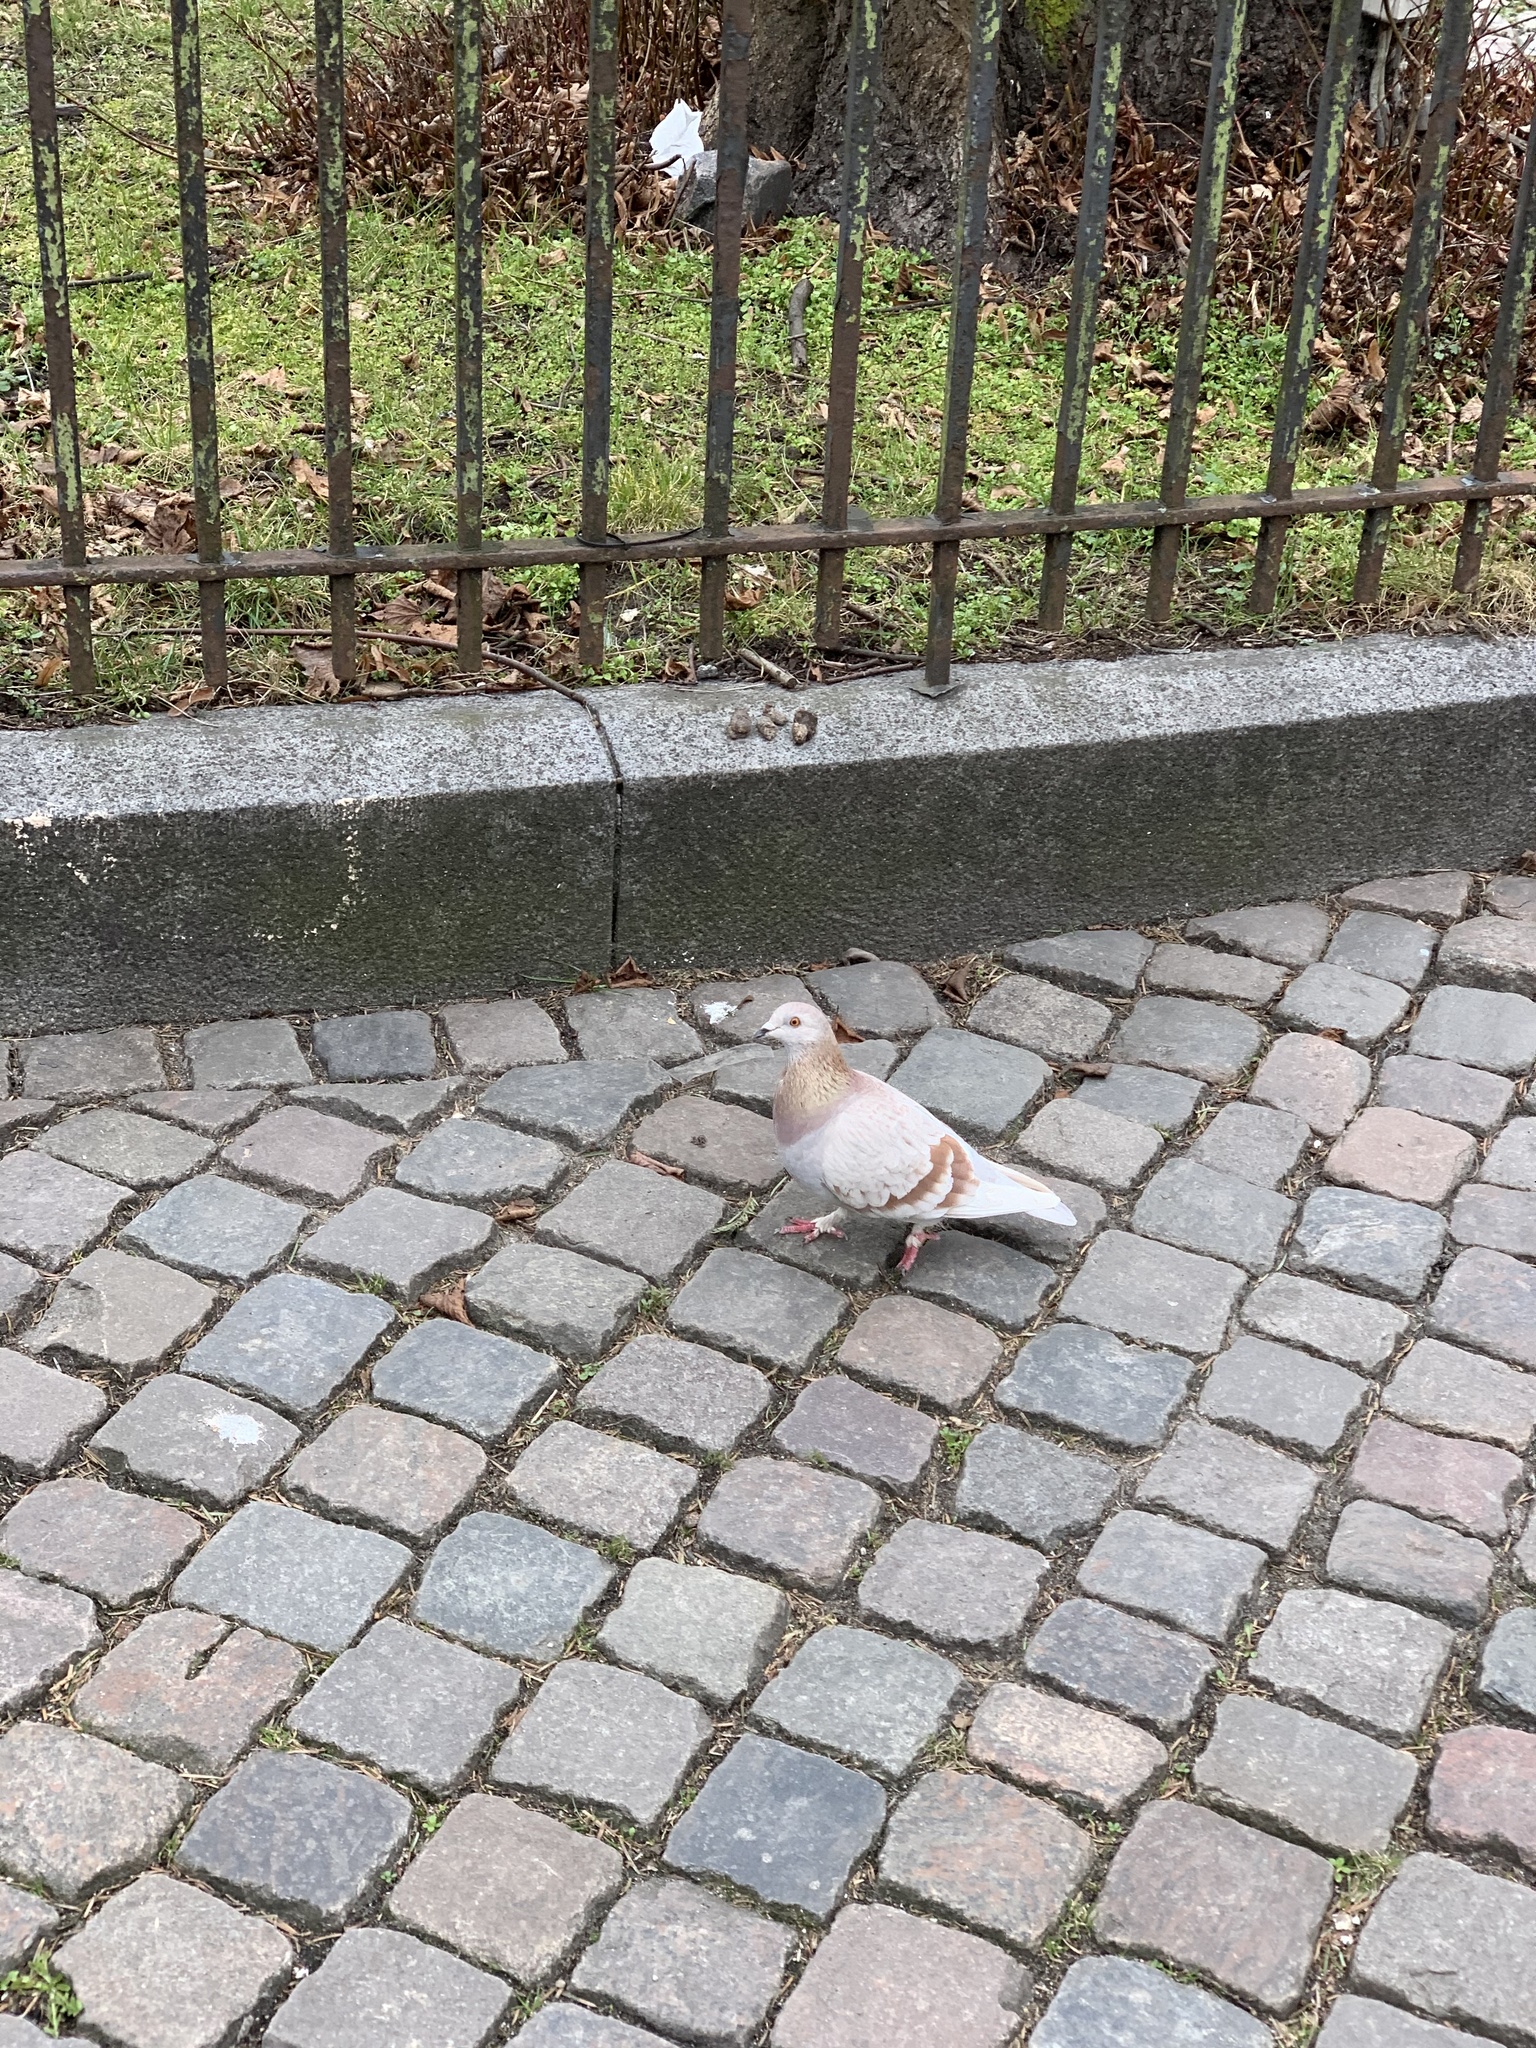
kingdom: Animalia
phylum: Chordata
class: Aves
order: Columbiformes
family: Columbidae
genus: Columba
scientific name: Columba livia
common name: Rock pigeon
